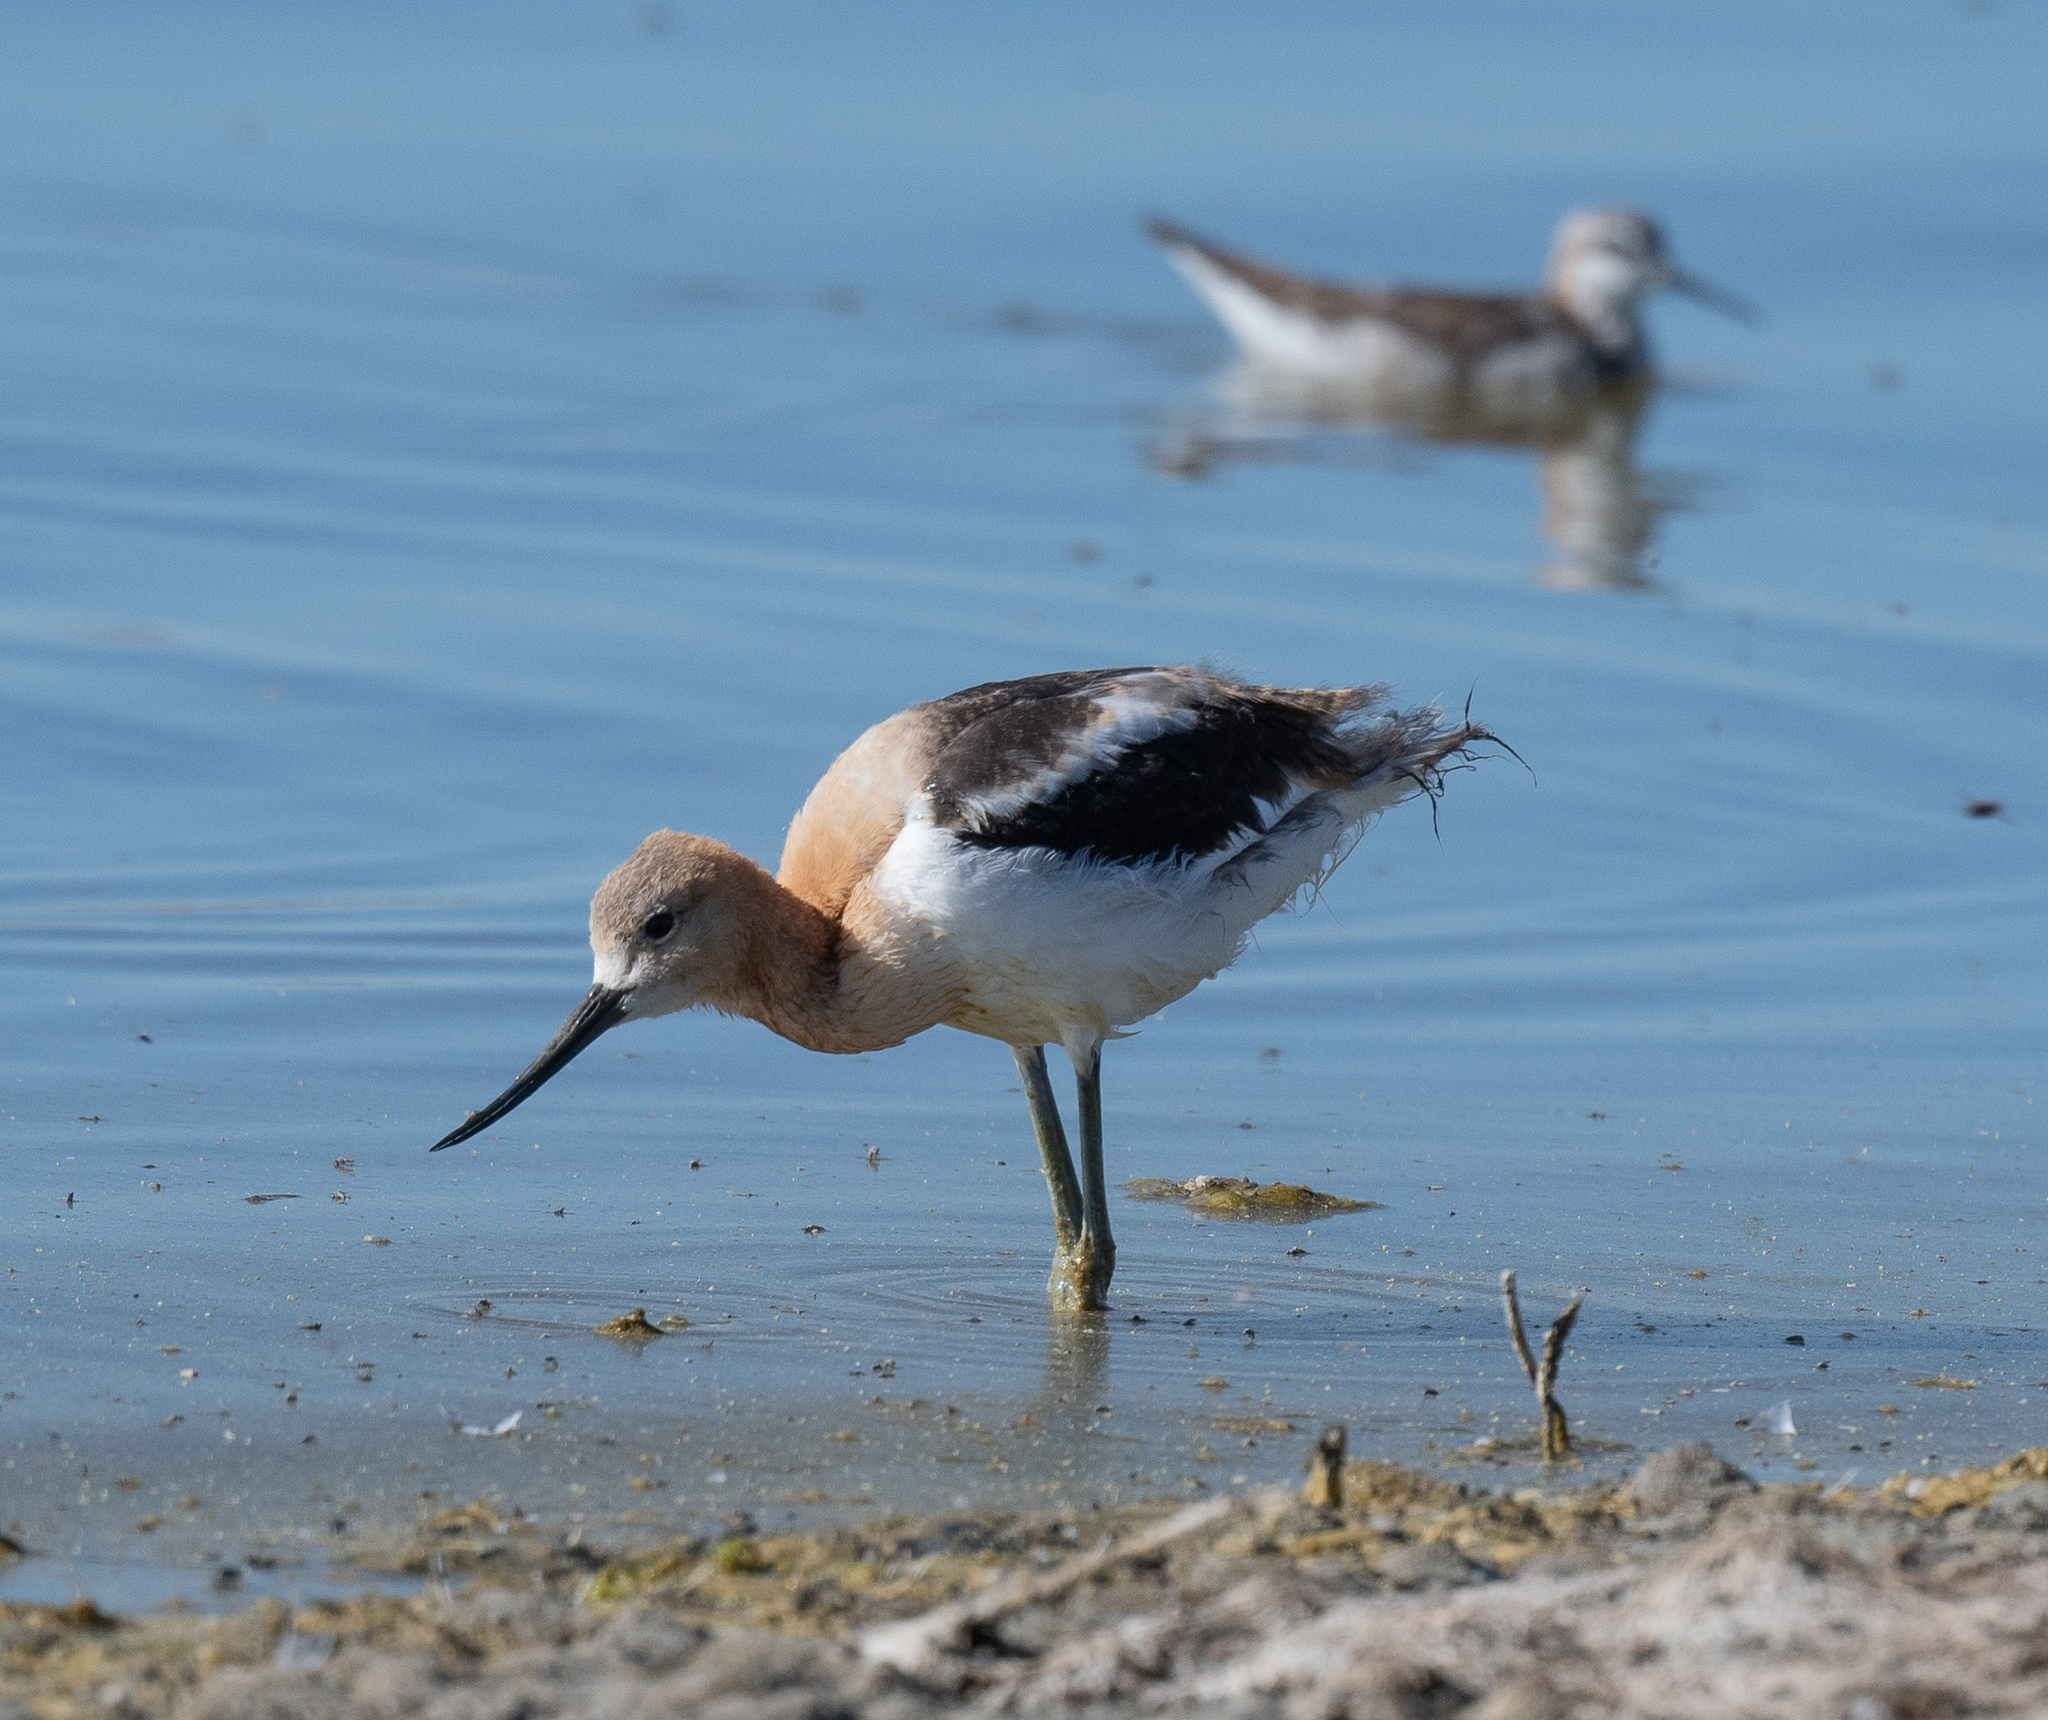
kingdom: Animalia
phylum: Chordata
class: Aves
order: Charadriiformes
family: Recurvirostridae
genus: Recurvirostra
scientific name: Recurvirostra americana
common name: American avocet
